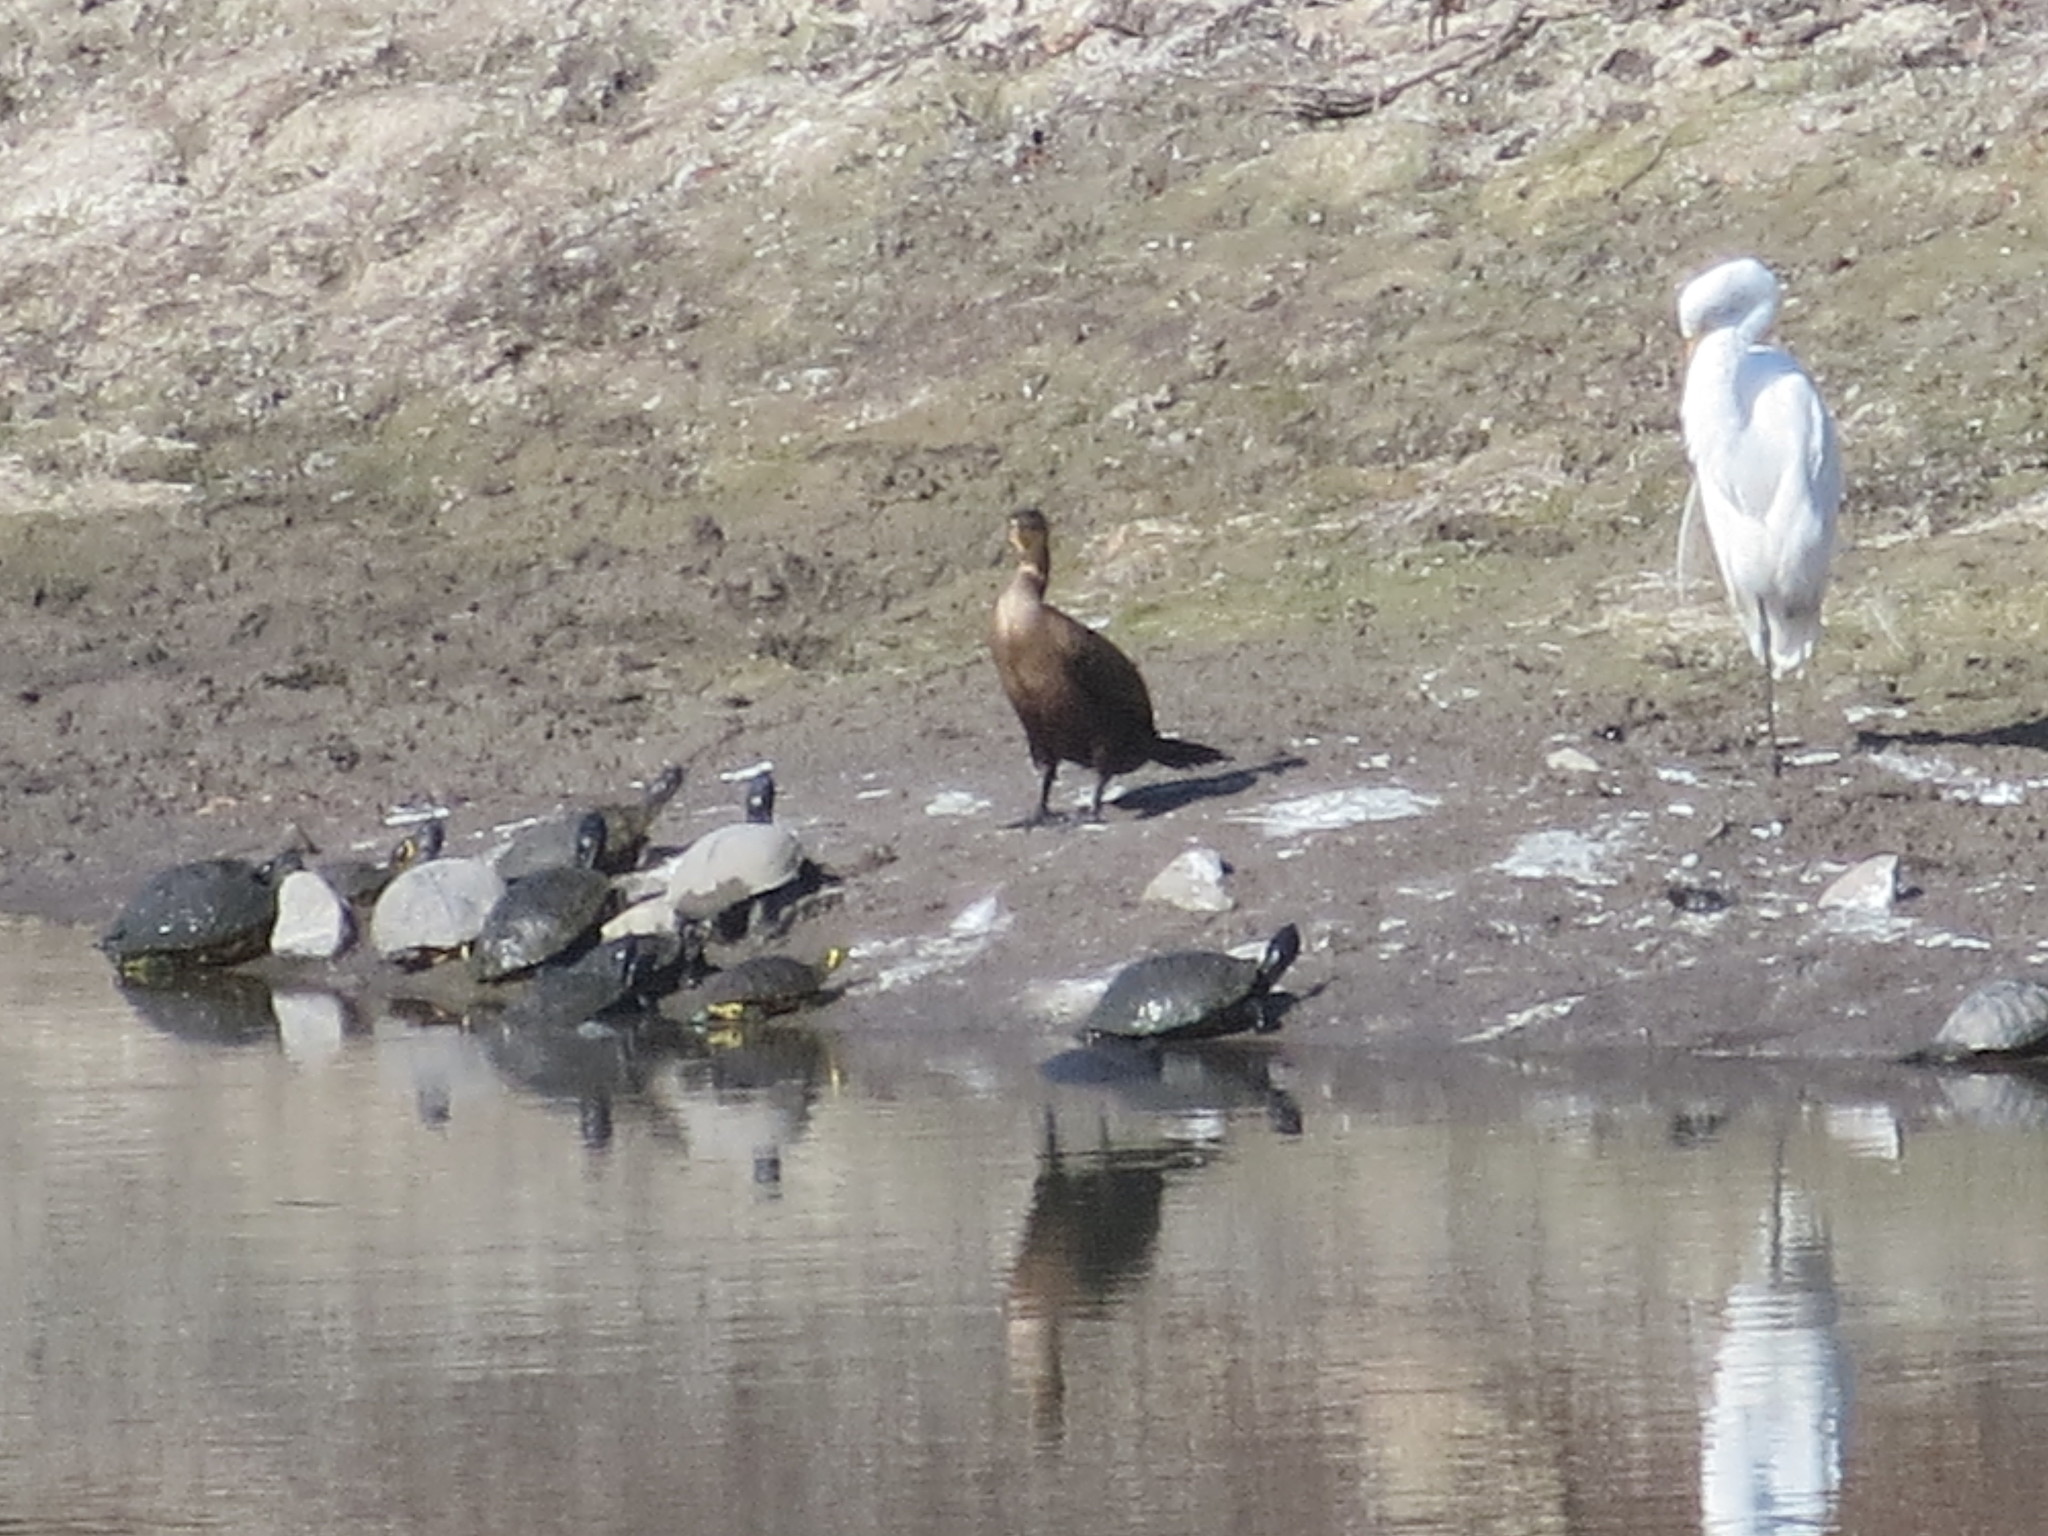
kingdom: Animalia
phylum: Chordata
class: Aves
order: Suliformes
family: Phalacrocoracidae
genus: Phalacrocorax
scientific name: Phalacrocorax auritus
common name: Double-crested cormorant
